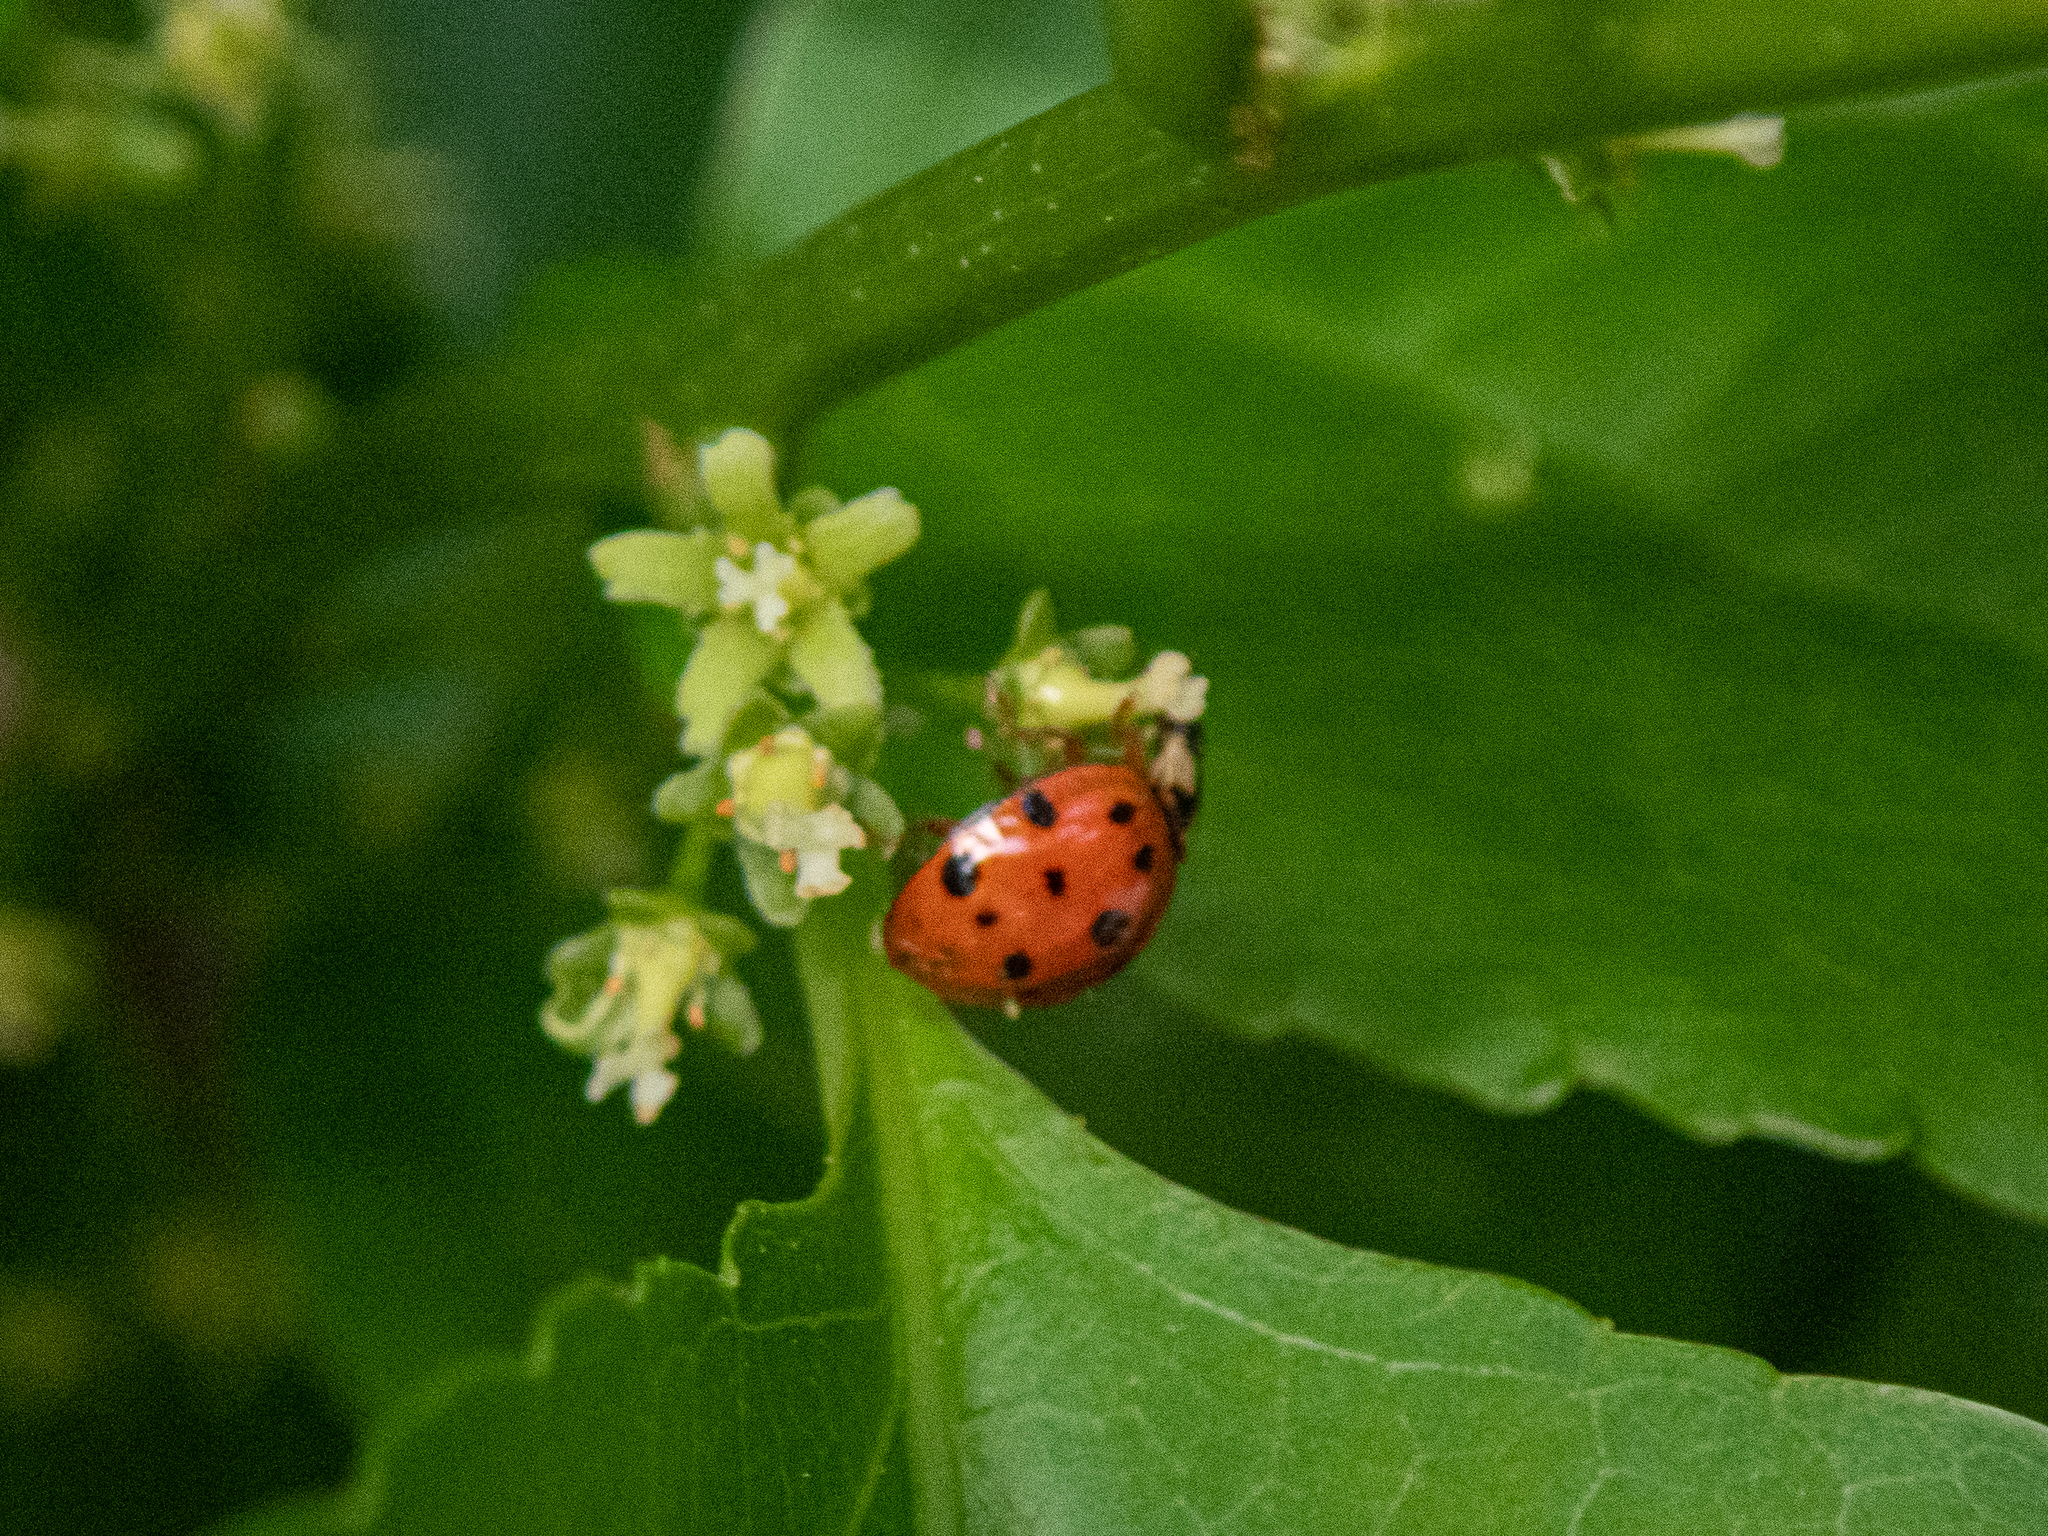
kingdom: Animalia
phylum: Arthropoda
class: Insecta
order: Coleoptera
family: Coccinellidae
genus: Harmonia
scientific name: Harmonia axyridis
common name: Harlequin ladybird
